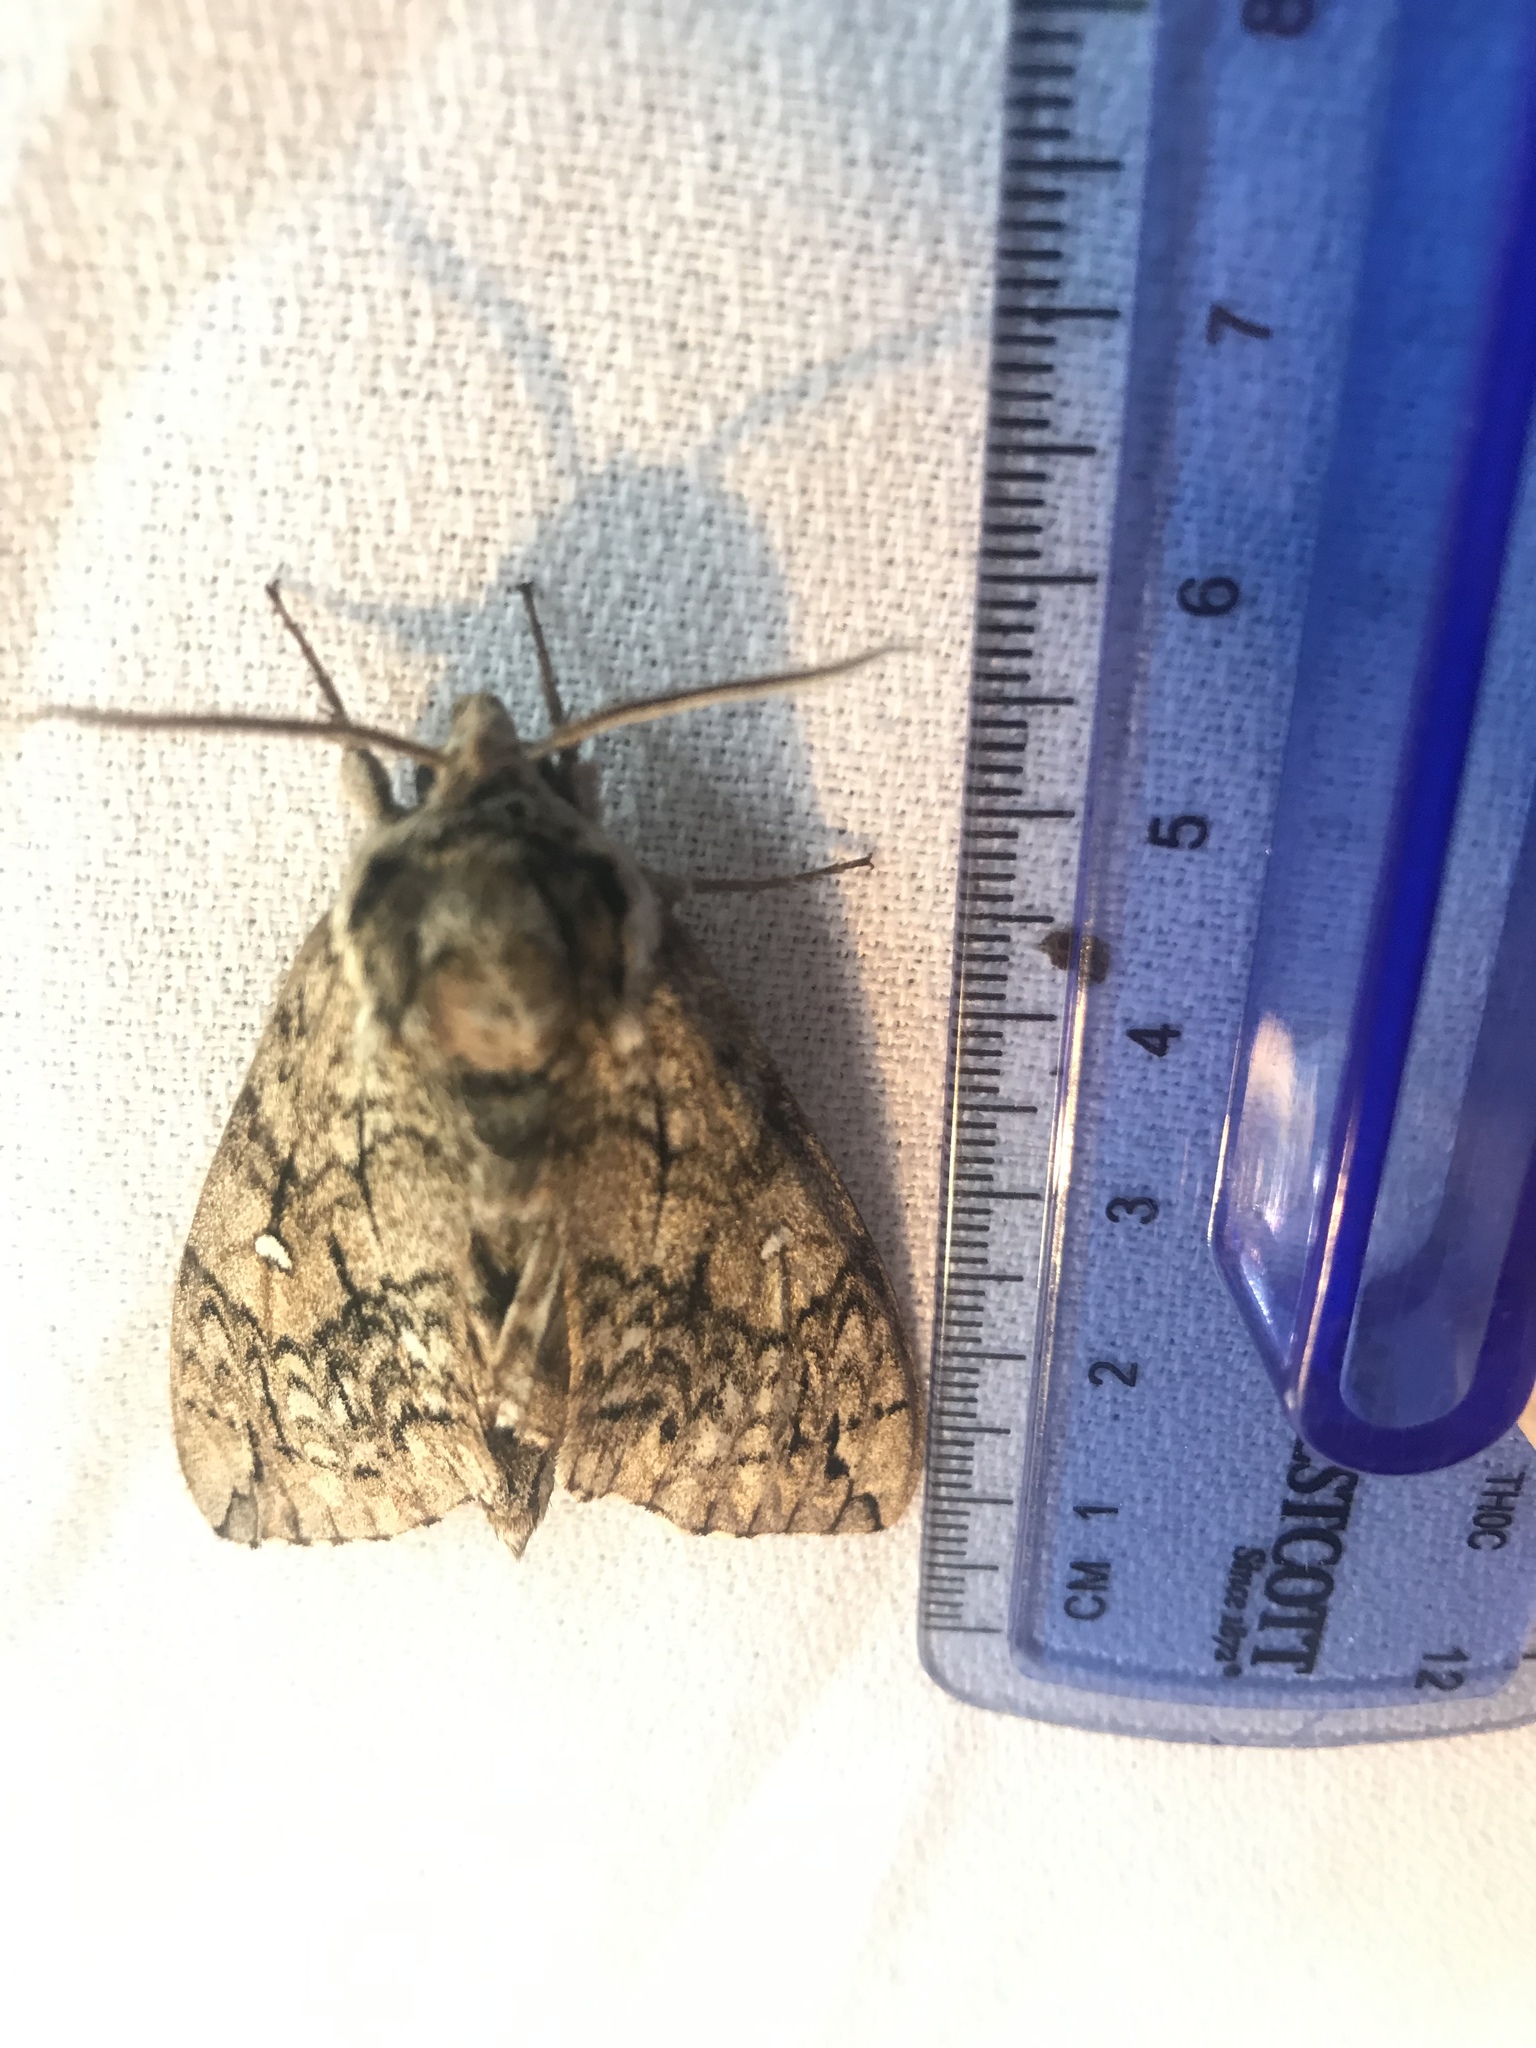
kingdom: Animalia
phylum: Arthropoda
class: Insecta
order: Lepidoptera
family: Sphingidae
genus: Ceratomia
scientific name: Ceratomia undulosa
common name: Waved sphinx
